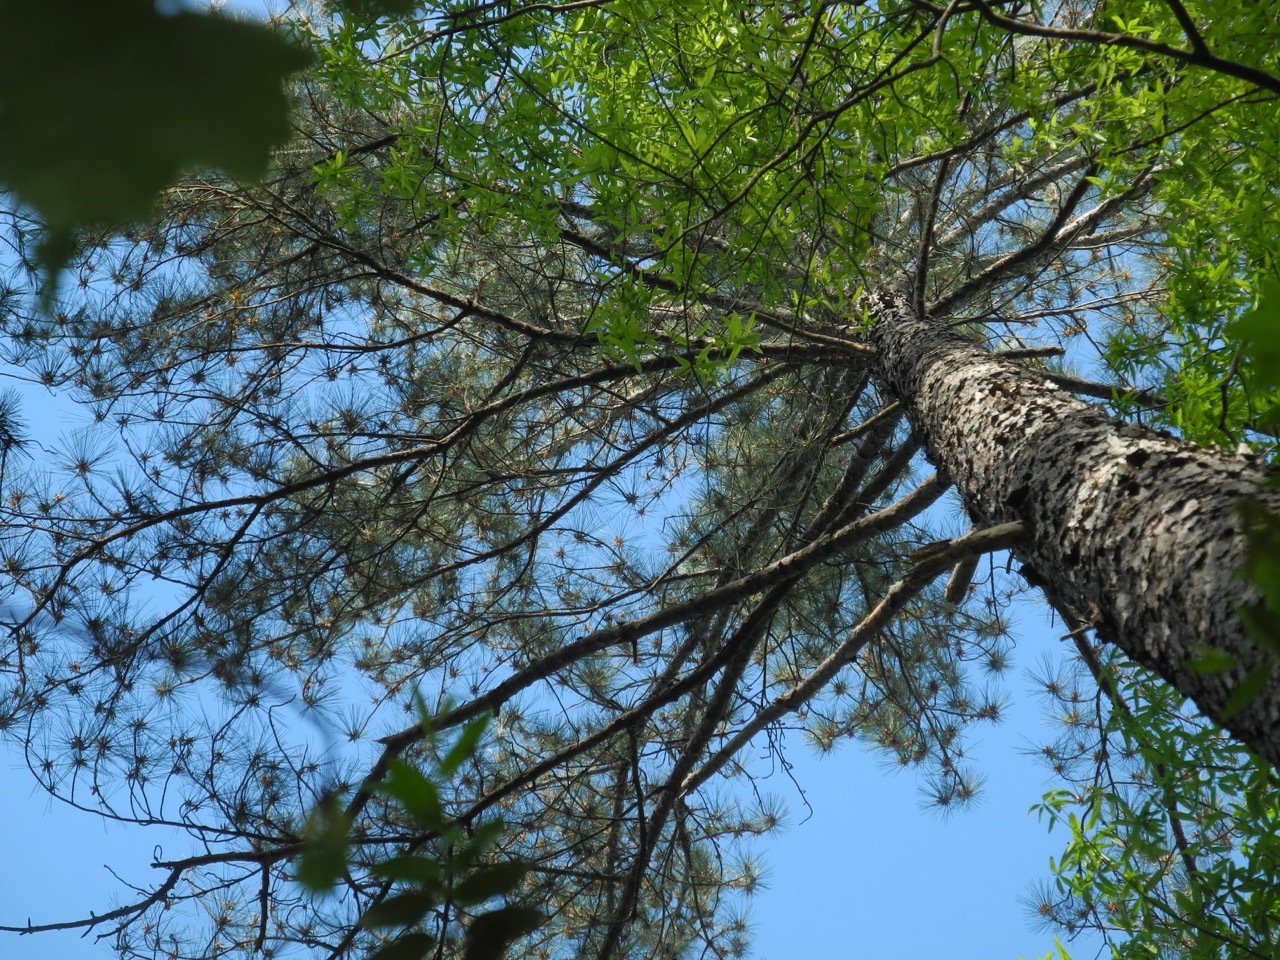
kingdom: Plantae
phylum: Tracheophyta
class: Pinopsida
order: Pinales
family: Pinaceae
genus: Pinus
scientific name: Pinus taeda
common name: Loblolly pine
